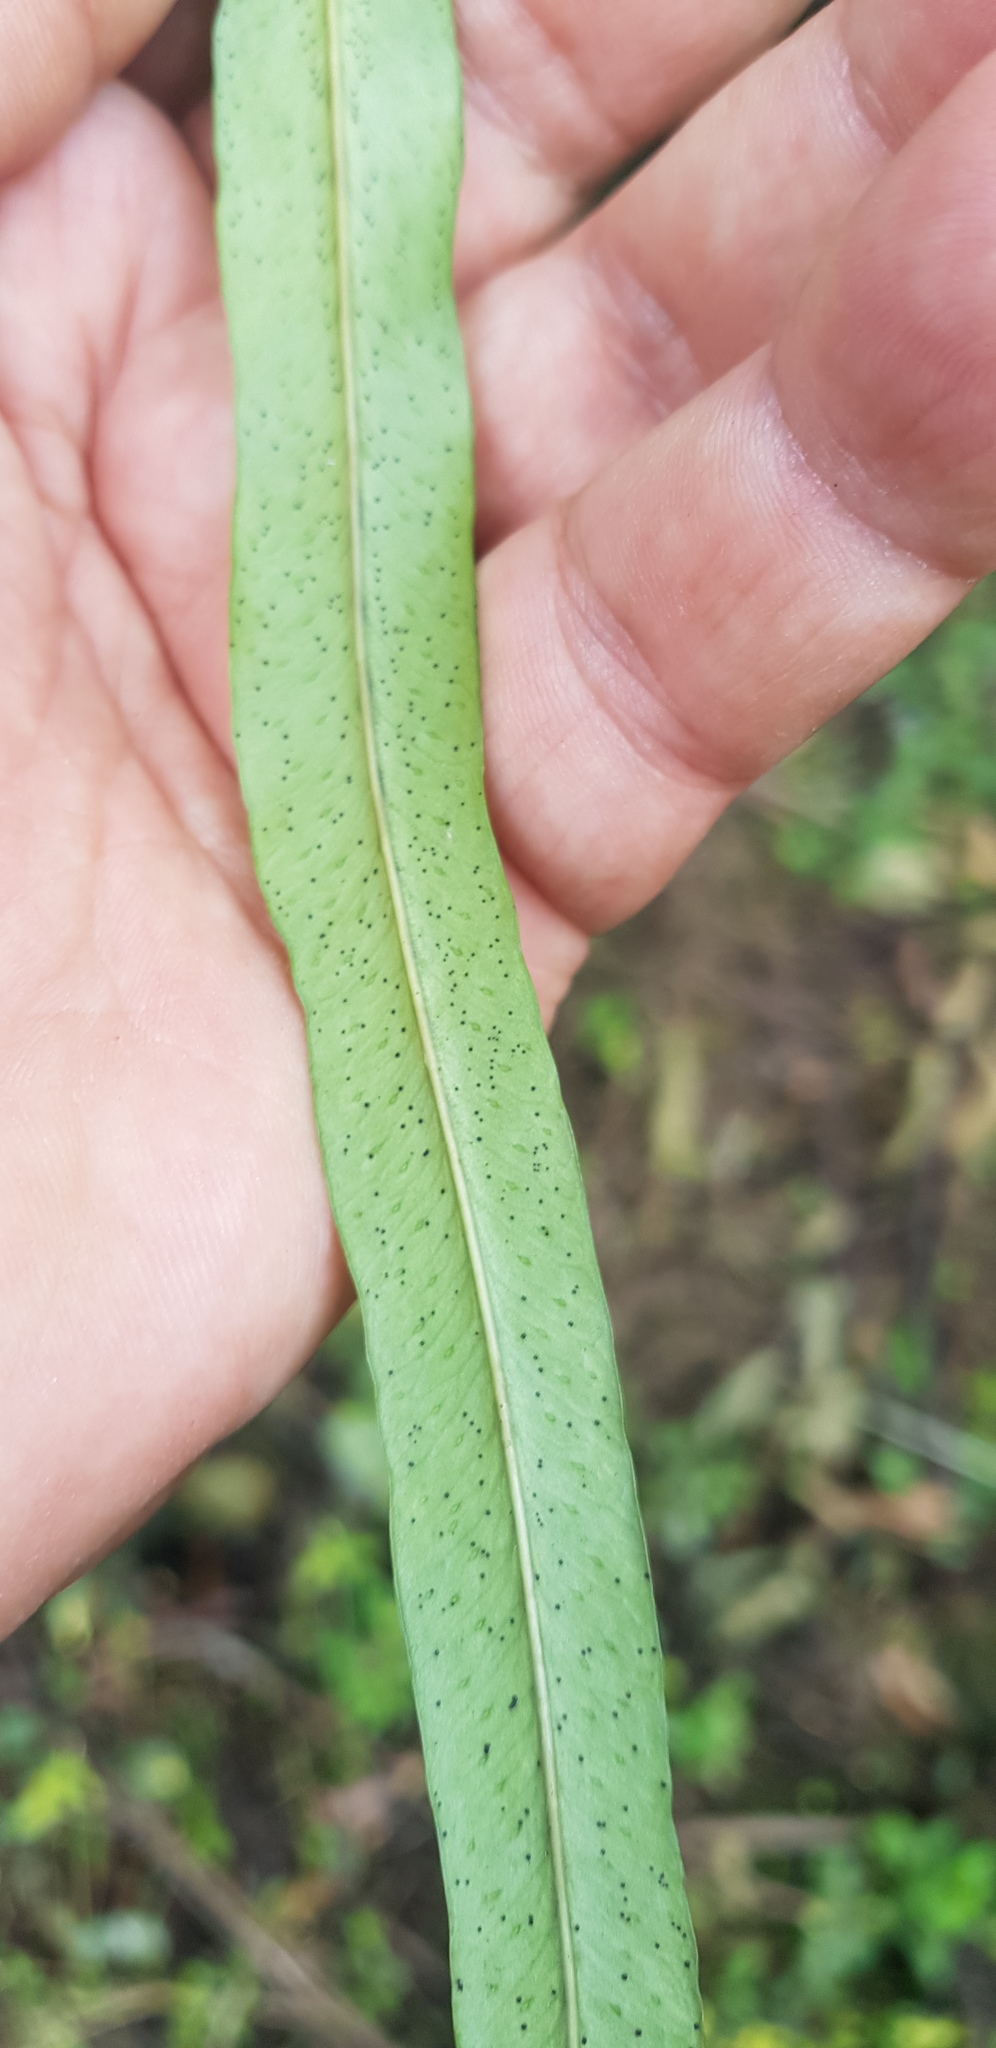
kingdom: Plantae
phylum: Tracheophyta
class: Polypodiopsida
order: Polypodiales
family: Polypodiaceae
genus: Campyloneurum
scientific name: Campyloneurum angustifolium
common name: Narrow-leaf strap fern
